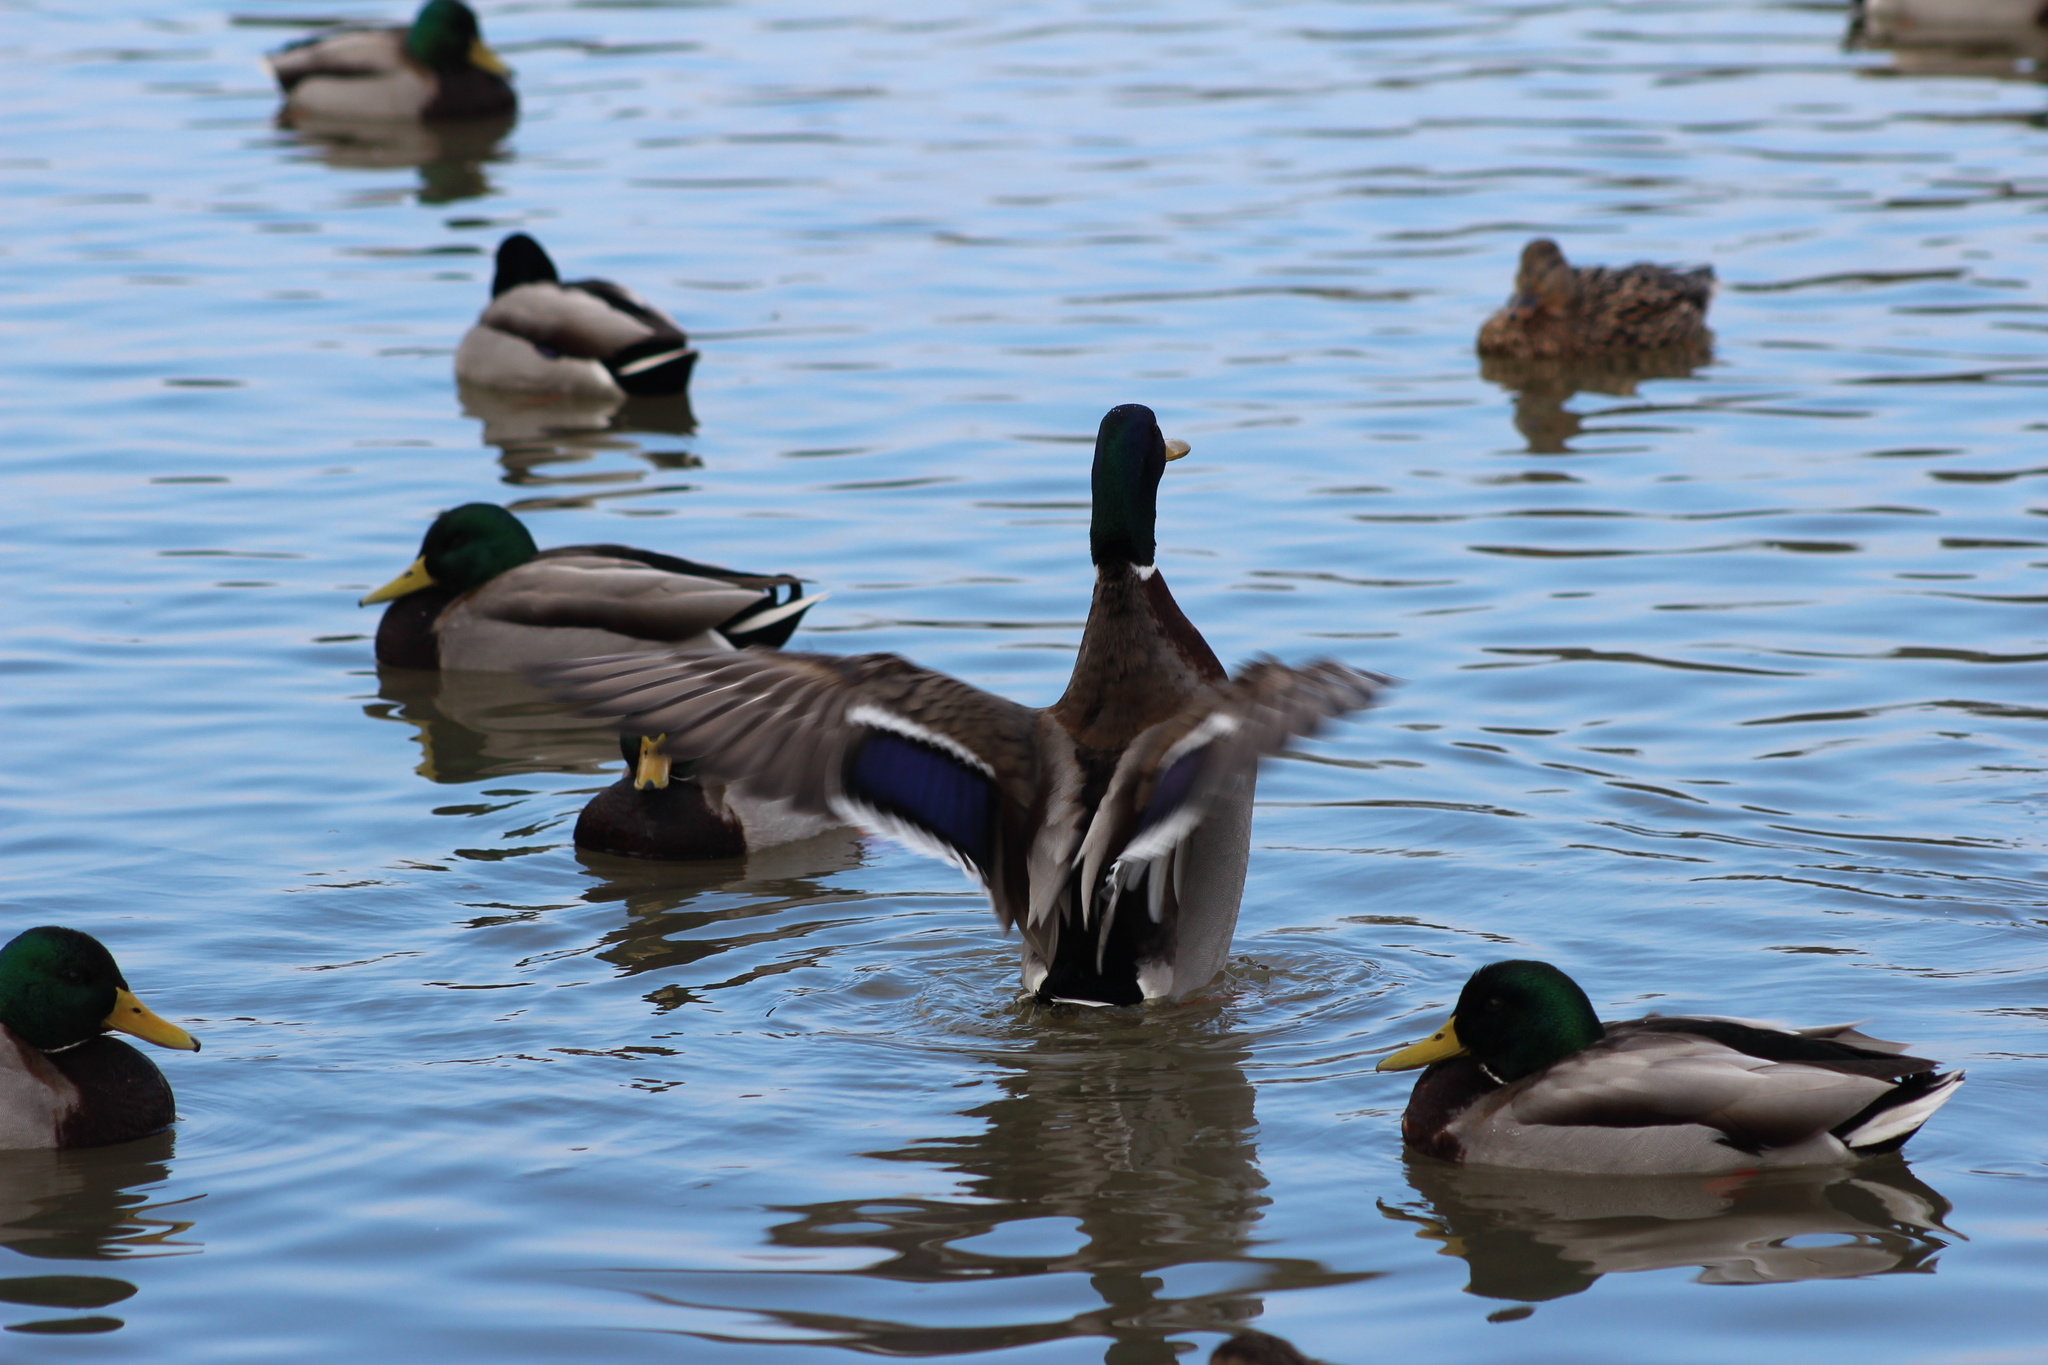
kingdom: Animalia
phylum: Chordata
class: Aves
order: Anseriformes
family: Anatidae
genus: Anas
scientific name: Anas platyrhynchos
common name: Mallard
